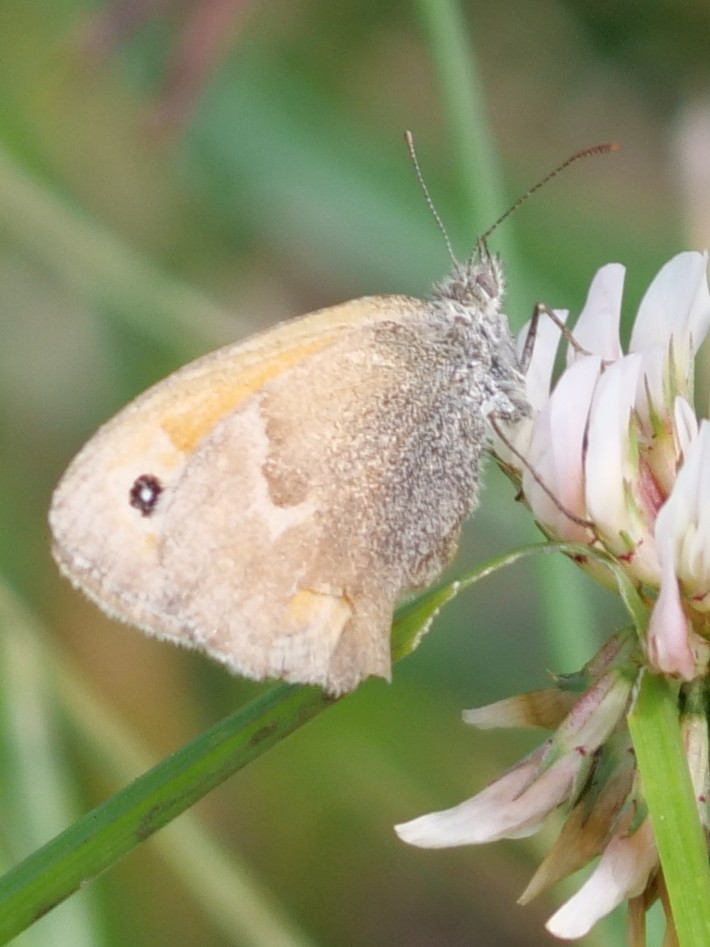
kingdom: Animalia
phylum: Arthropoda
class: Insecta
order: Lepidoptera
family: Nymphalidae
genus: Coenonympha
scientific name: Coenonympha pamphilus
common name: Small heath
